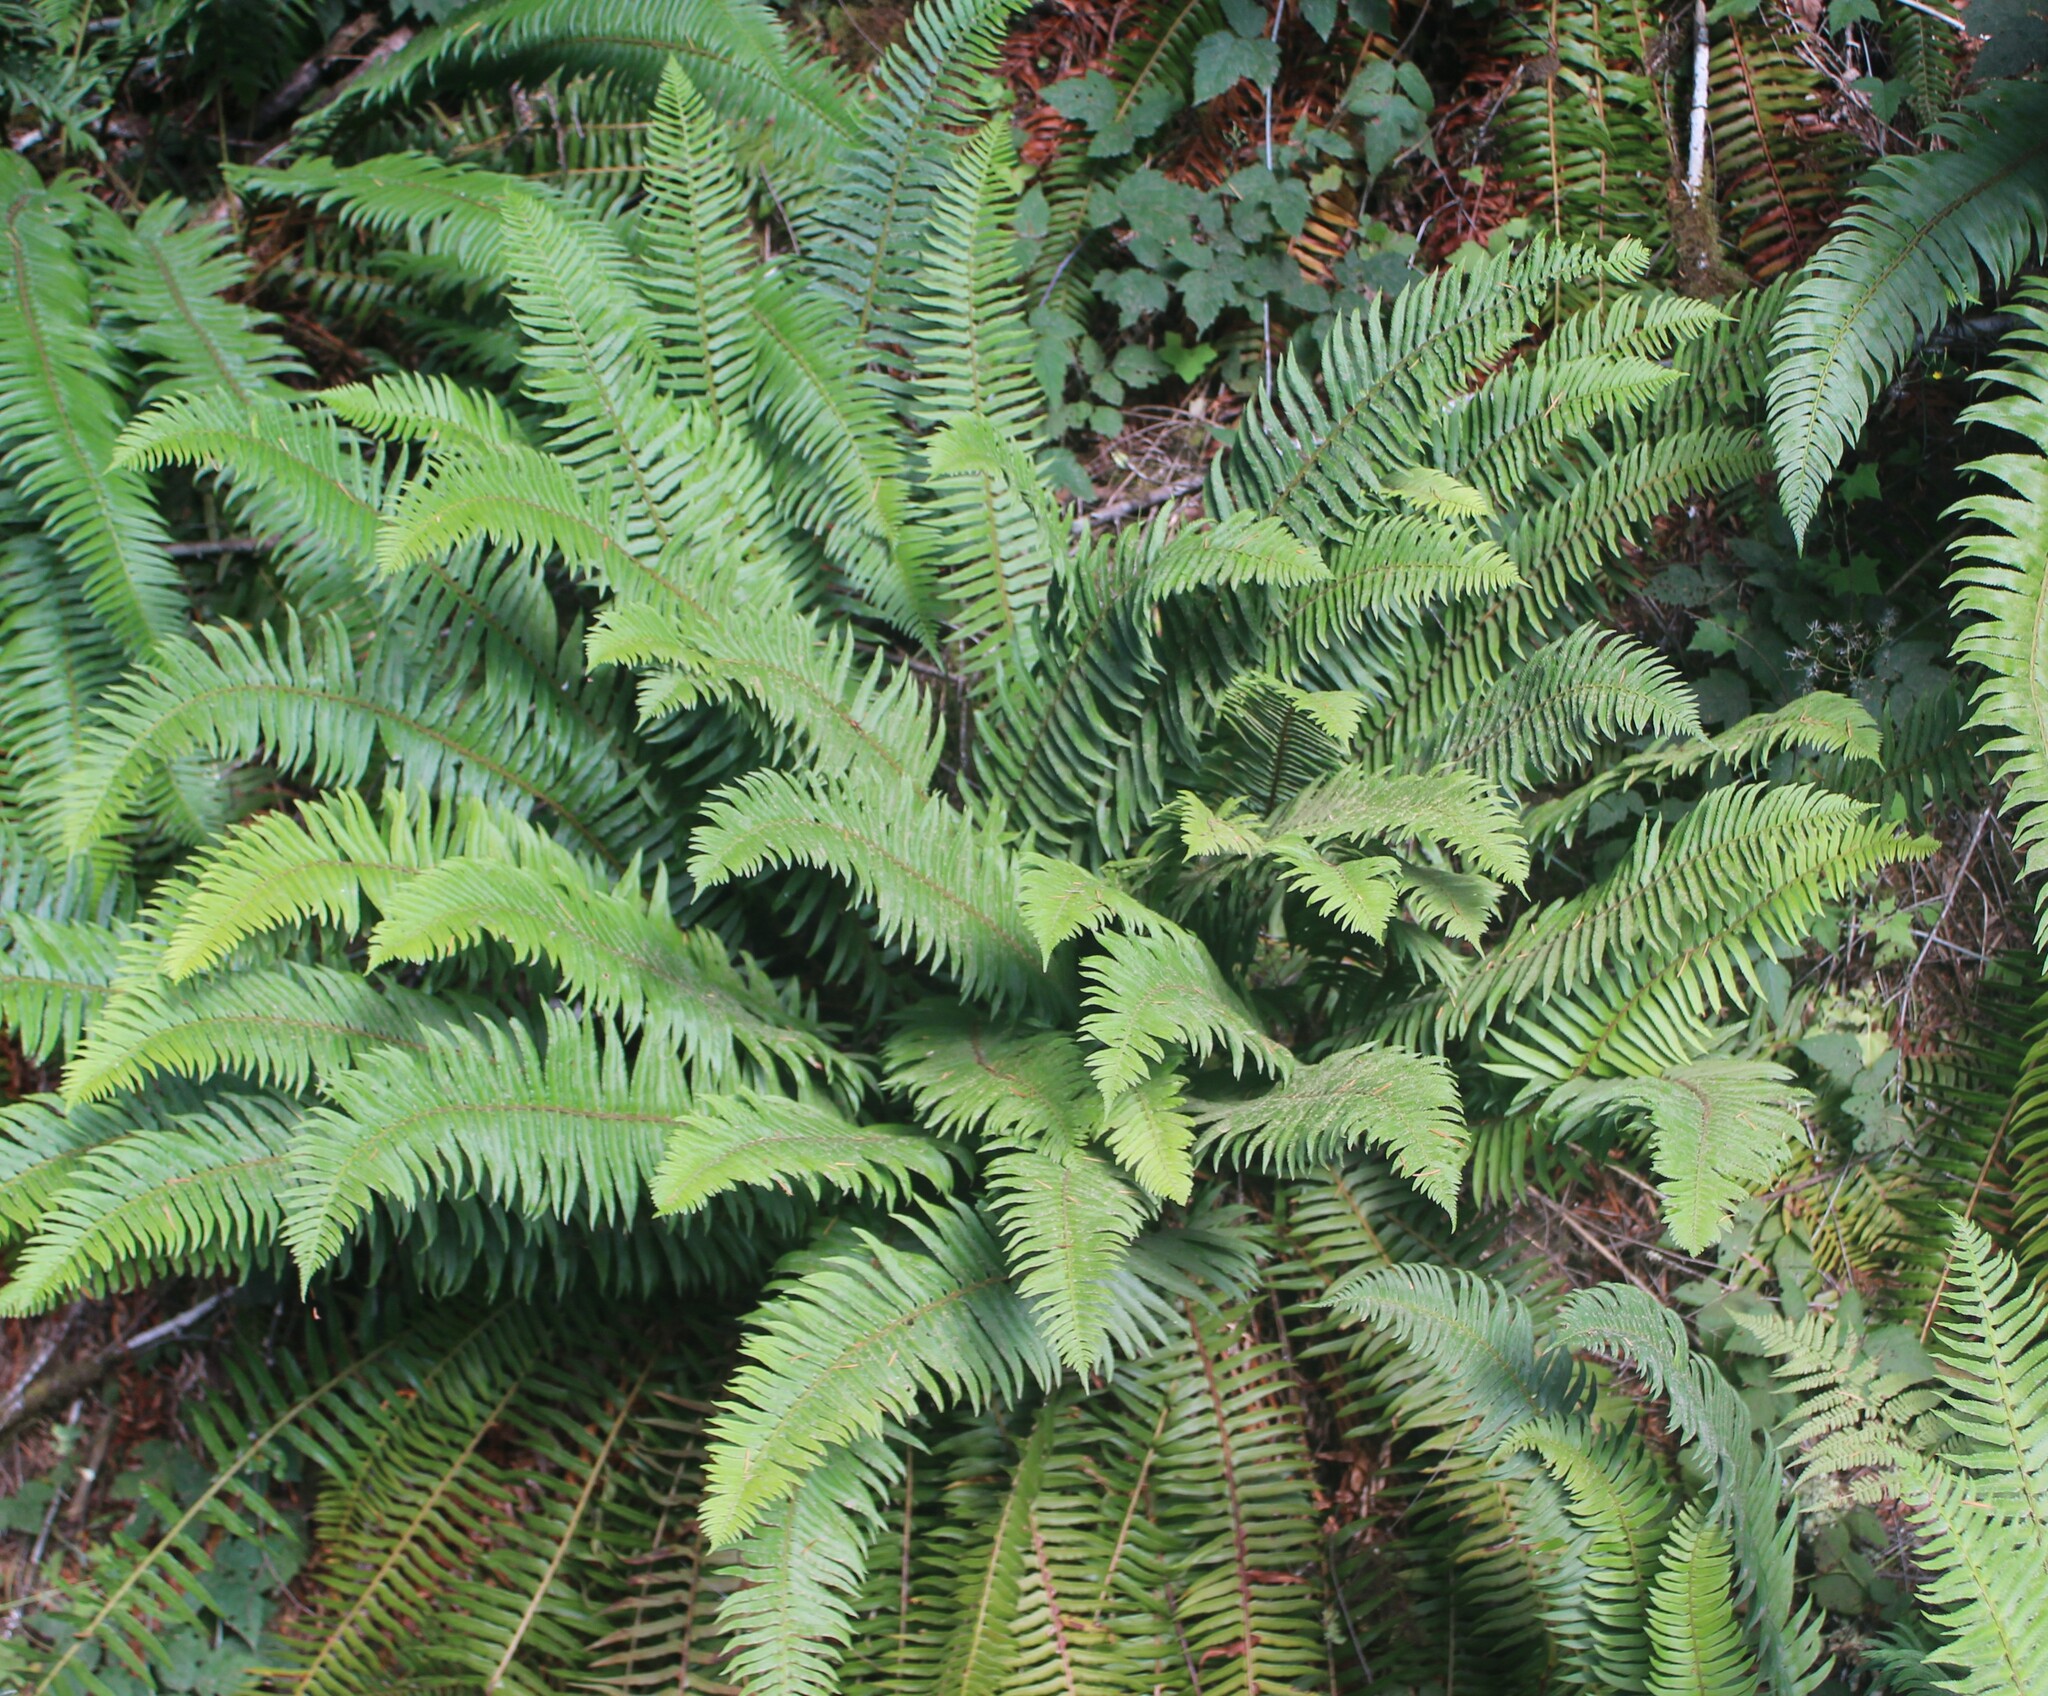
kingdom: Plantae
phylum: Tracheophyta
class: Polypodiopsida
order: Polypodiales
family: Dryopteridaceae
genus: Polystichum
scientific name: Polystichum munitum
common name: Western sword-fern
